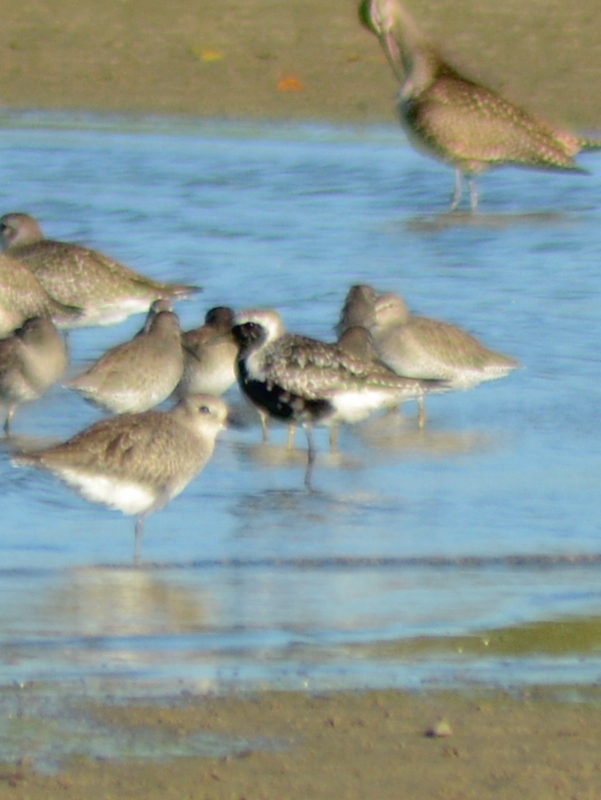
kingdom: Animalia
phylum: Chordata
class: Aves
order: Charadriiformes
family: Charadriidae
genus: Pluvialis
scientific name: Pluvialis squatarola
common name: Grey plover
